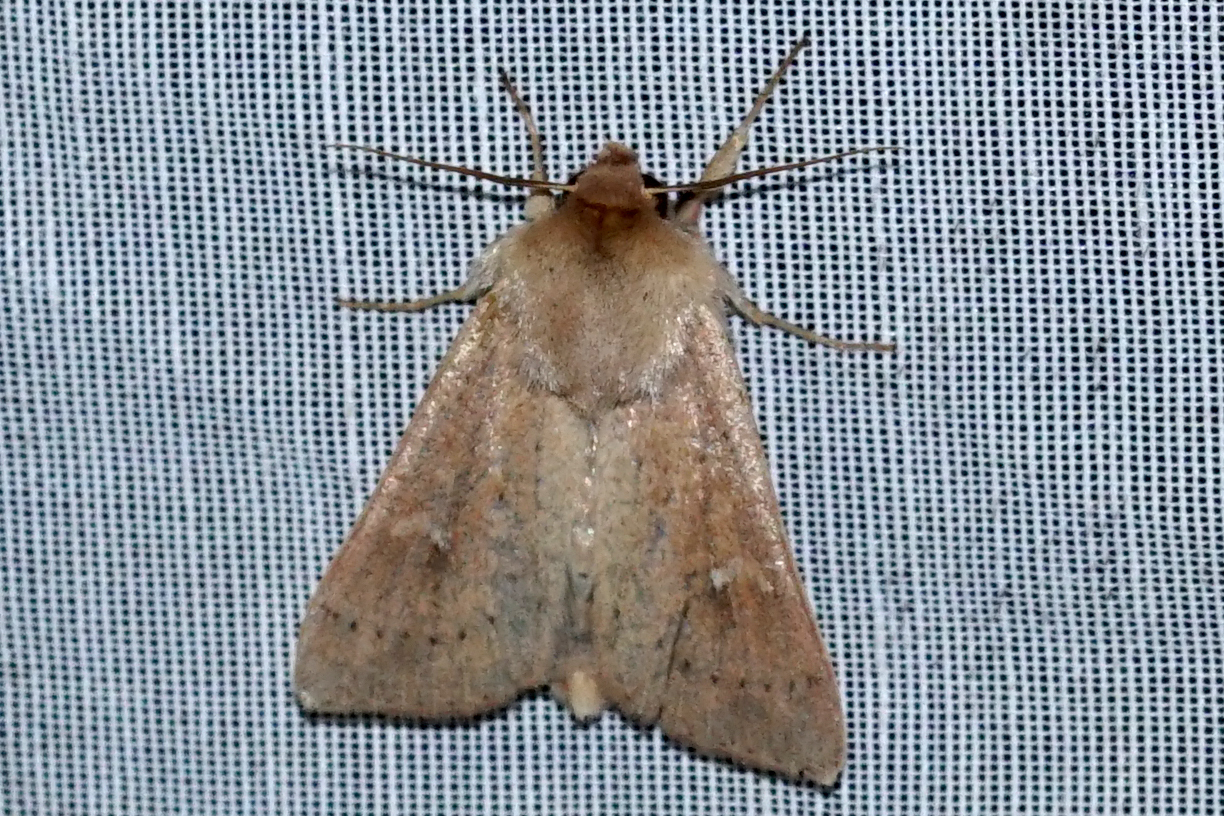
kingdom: Animalia
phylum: Arthropoda
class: Insecta
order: Lepidoptera
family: Noctuidae
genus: Mythimna
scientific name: Mythimna ferrago
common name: Clay
